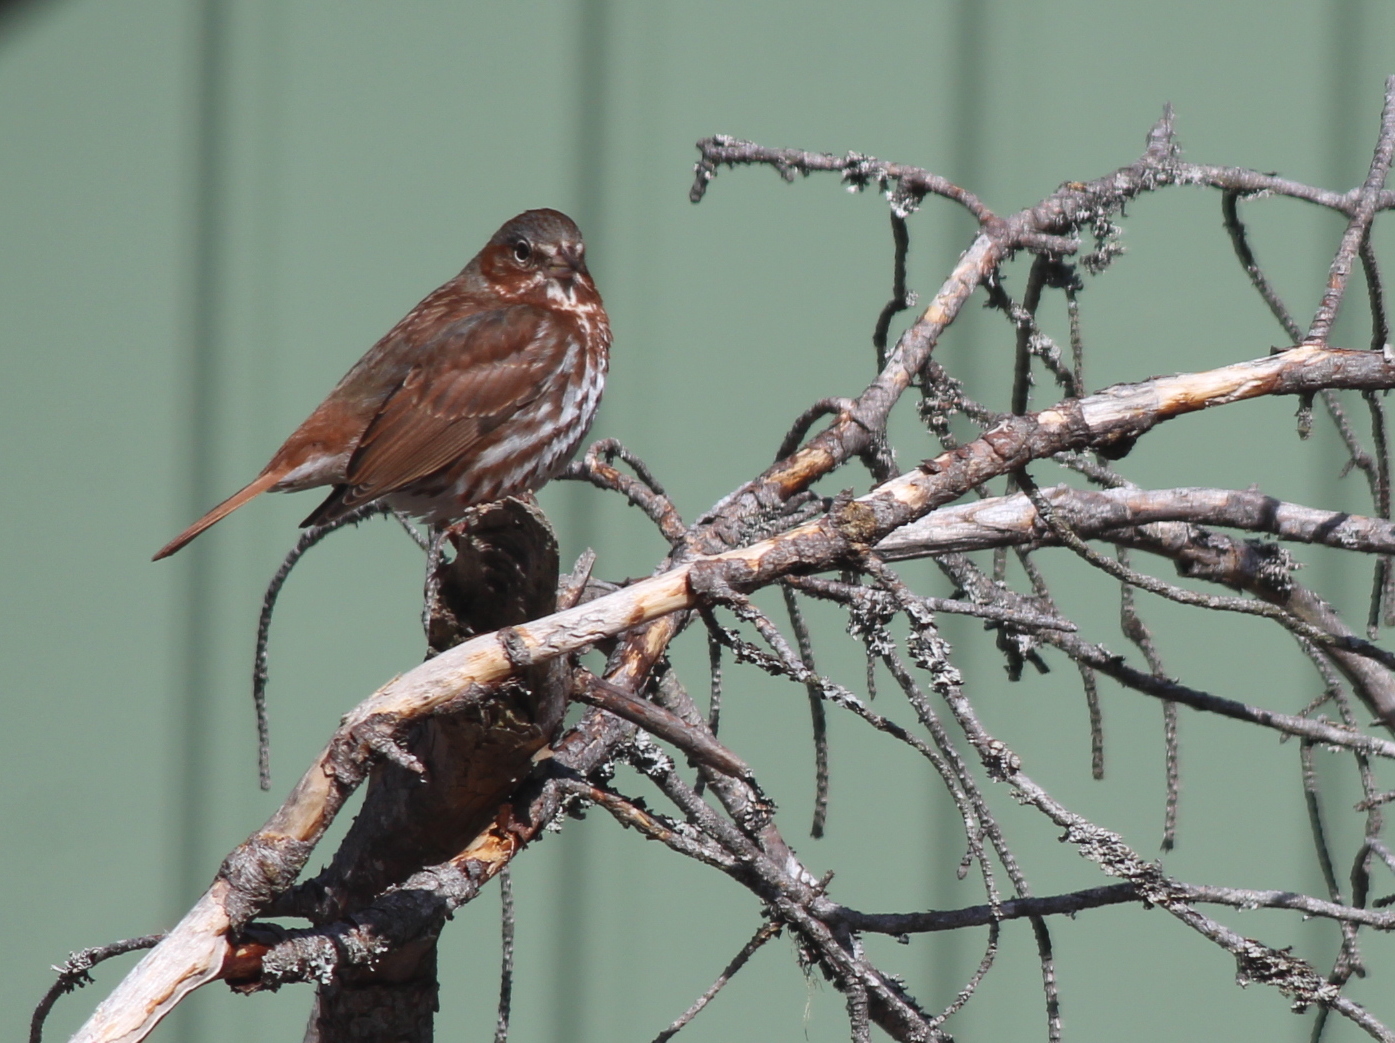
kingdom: Animalia
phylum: Chordata
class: Aves
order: Passeriformes
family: Passerellidae
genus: Passerella
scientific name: Passerella iliaca
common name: Fox sparrow
